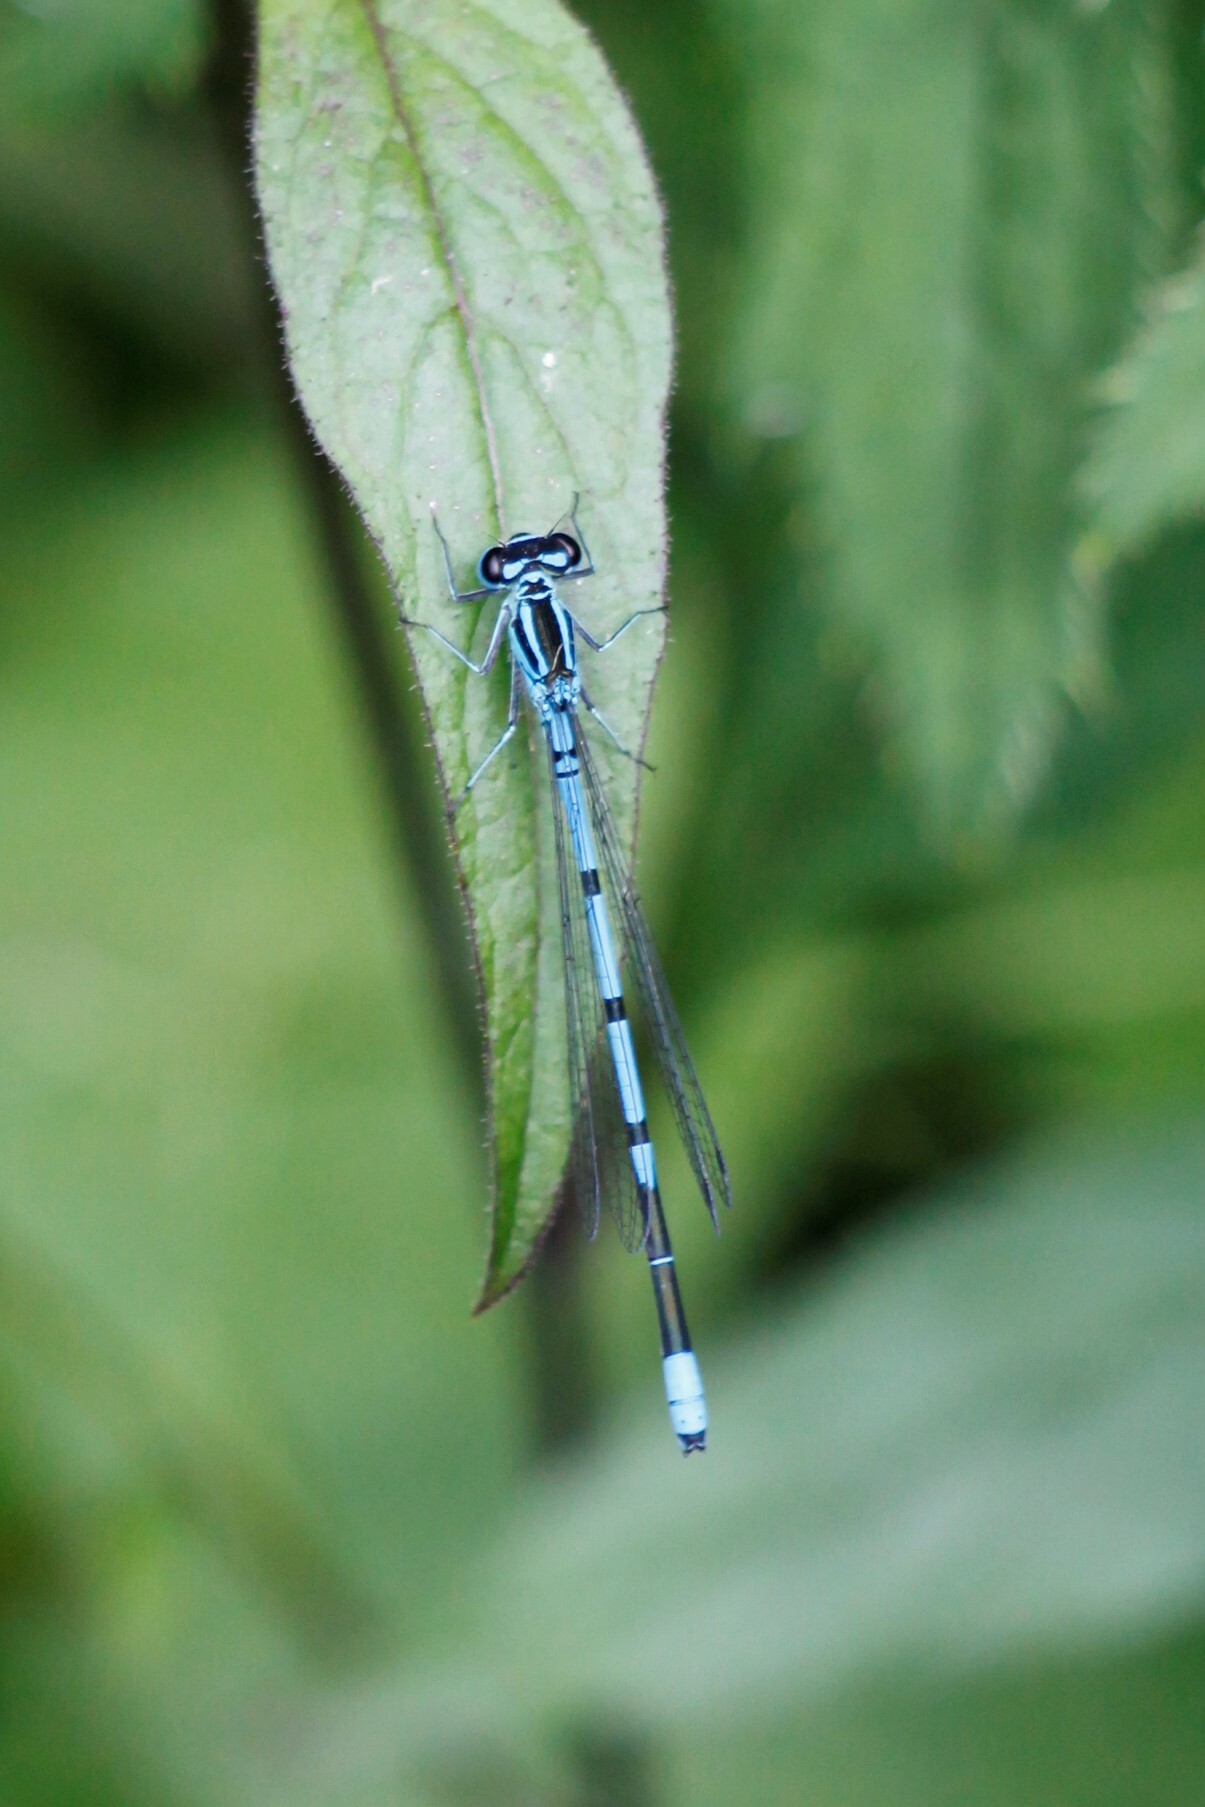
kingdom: Animalia
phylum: Arthropoda
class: Insecta
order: Odonata
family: Coenagrionidae
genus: Coenagrion
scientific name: Coenagrion puella
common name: Azure damselfly
